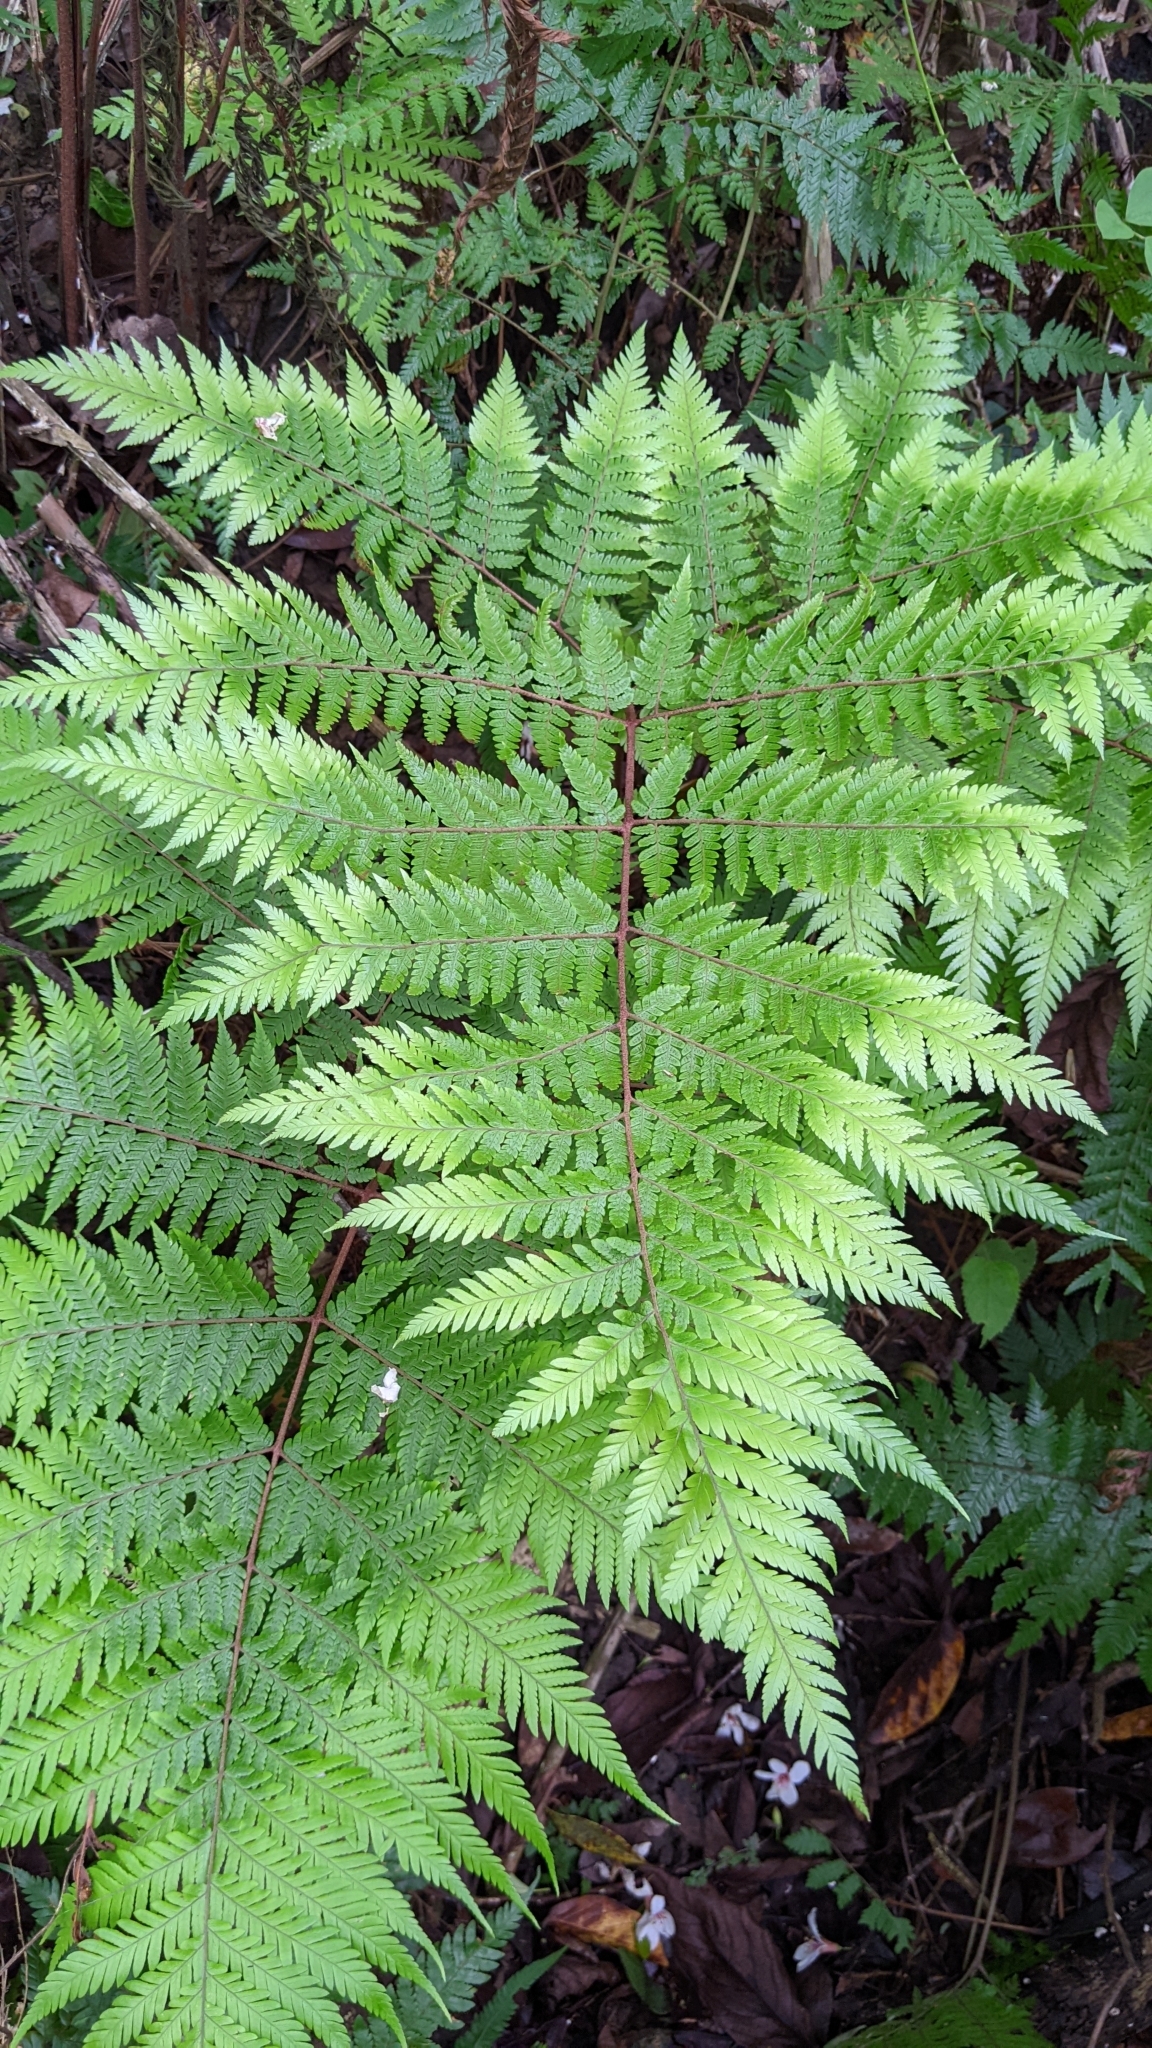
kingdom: Plantae
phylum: Tracheophyta
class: Polypodiopsida
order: Polypodiales
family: Dryopteridaceae
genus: Ctenitis
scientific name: Ctenitis subglandulosa
